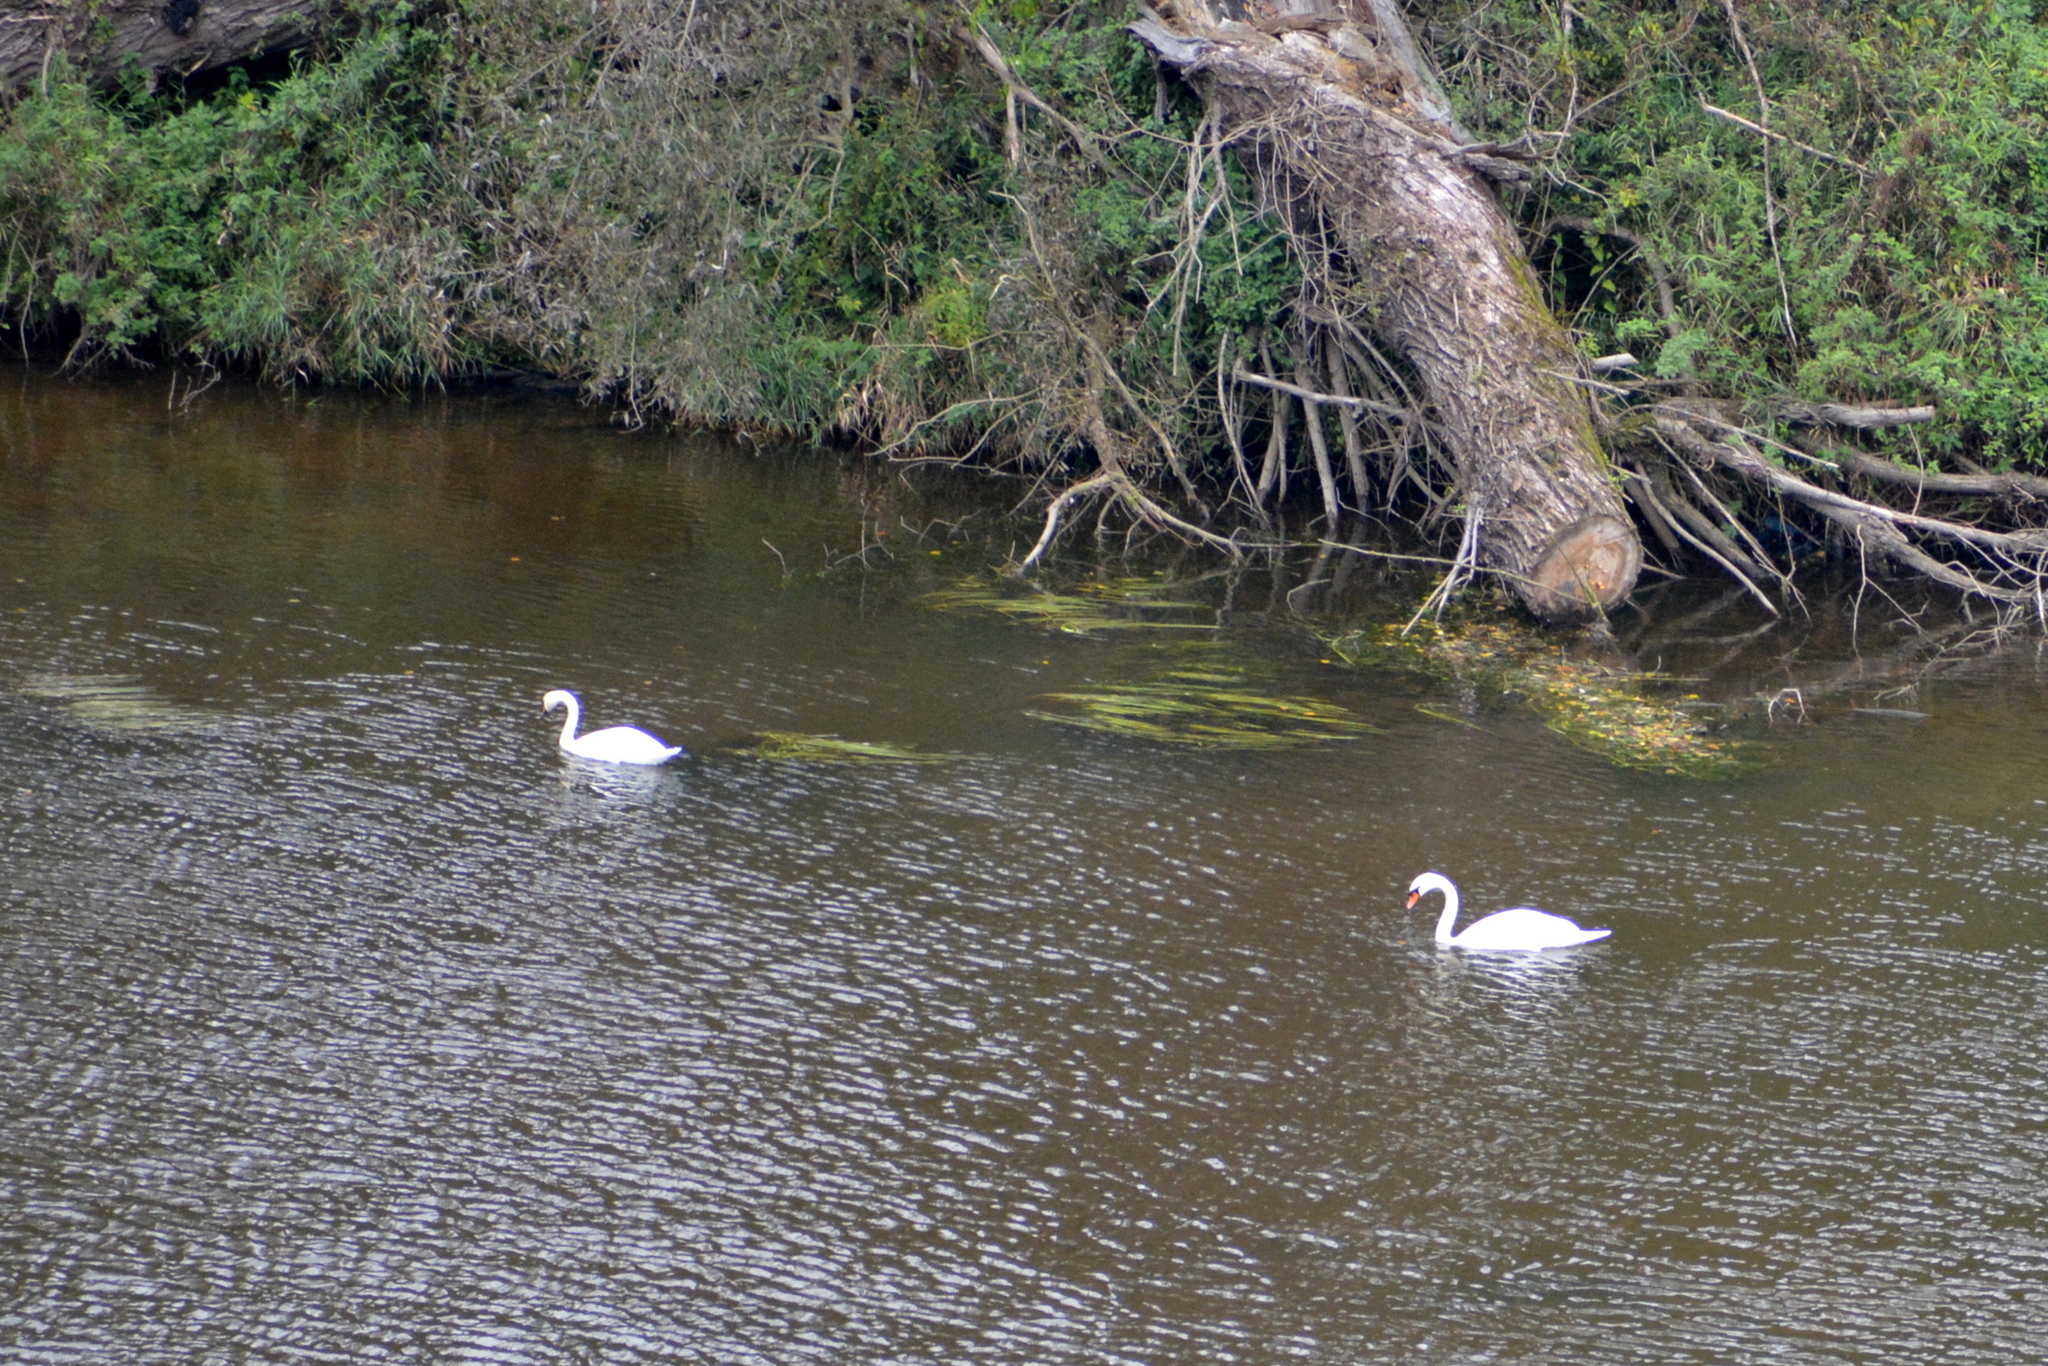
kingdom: Animalia
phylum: Chordata
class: Aves
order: Anseriformes
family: Anatidae
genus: Cygnus
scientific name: Cygnus olor
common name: Mute swan
